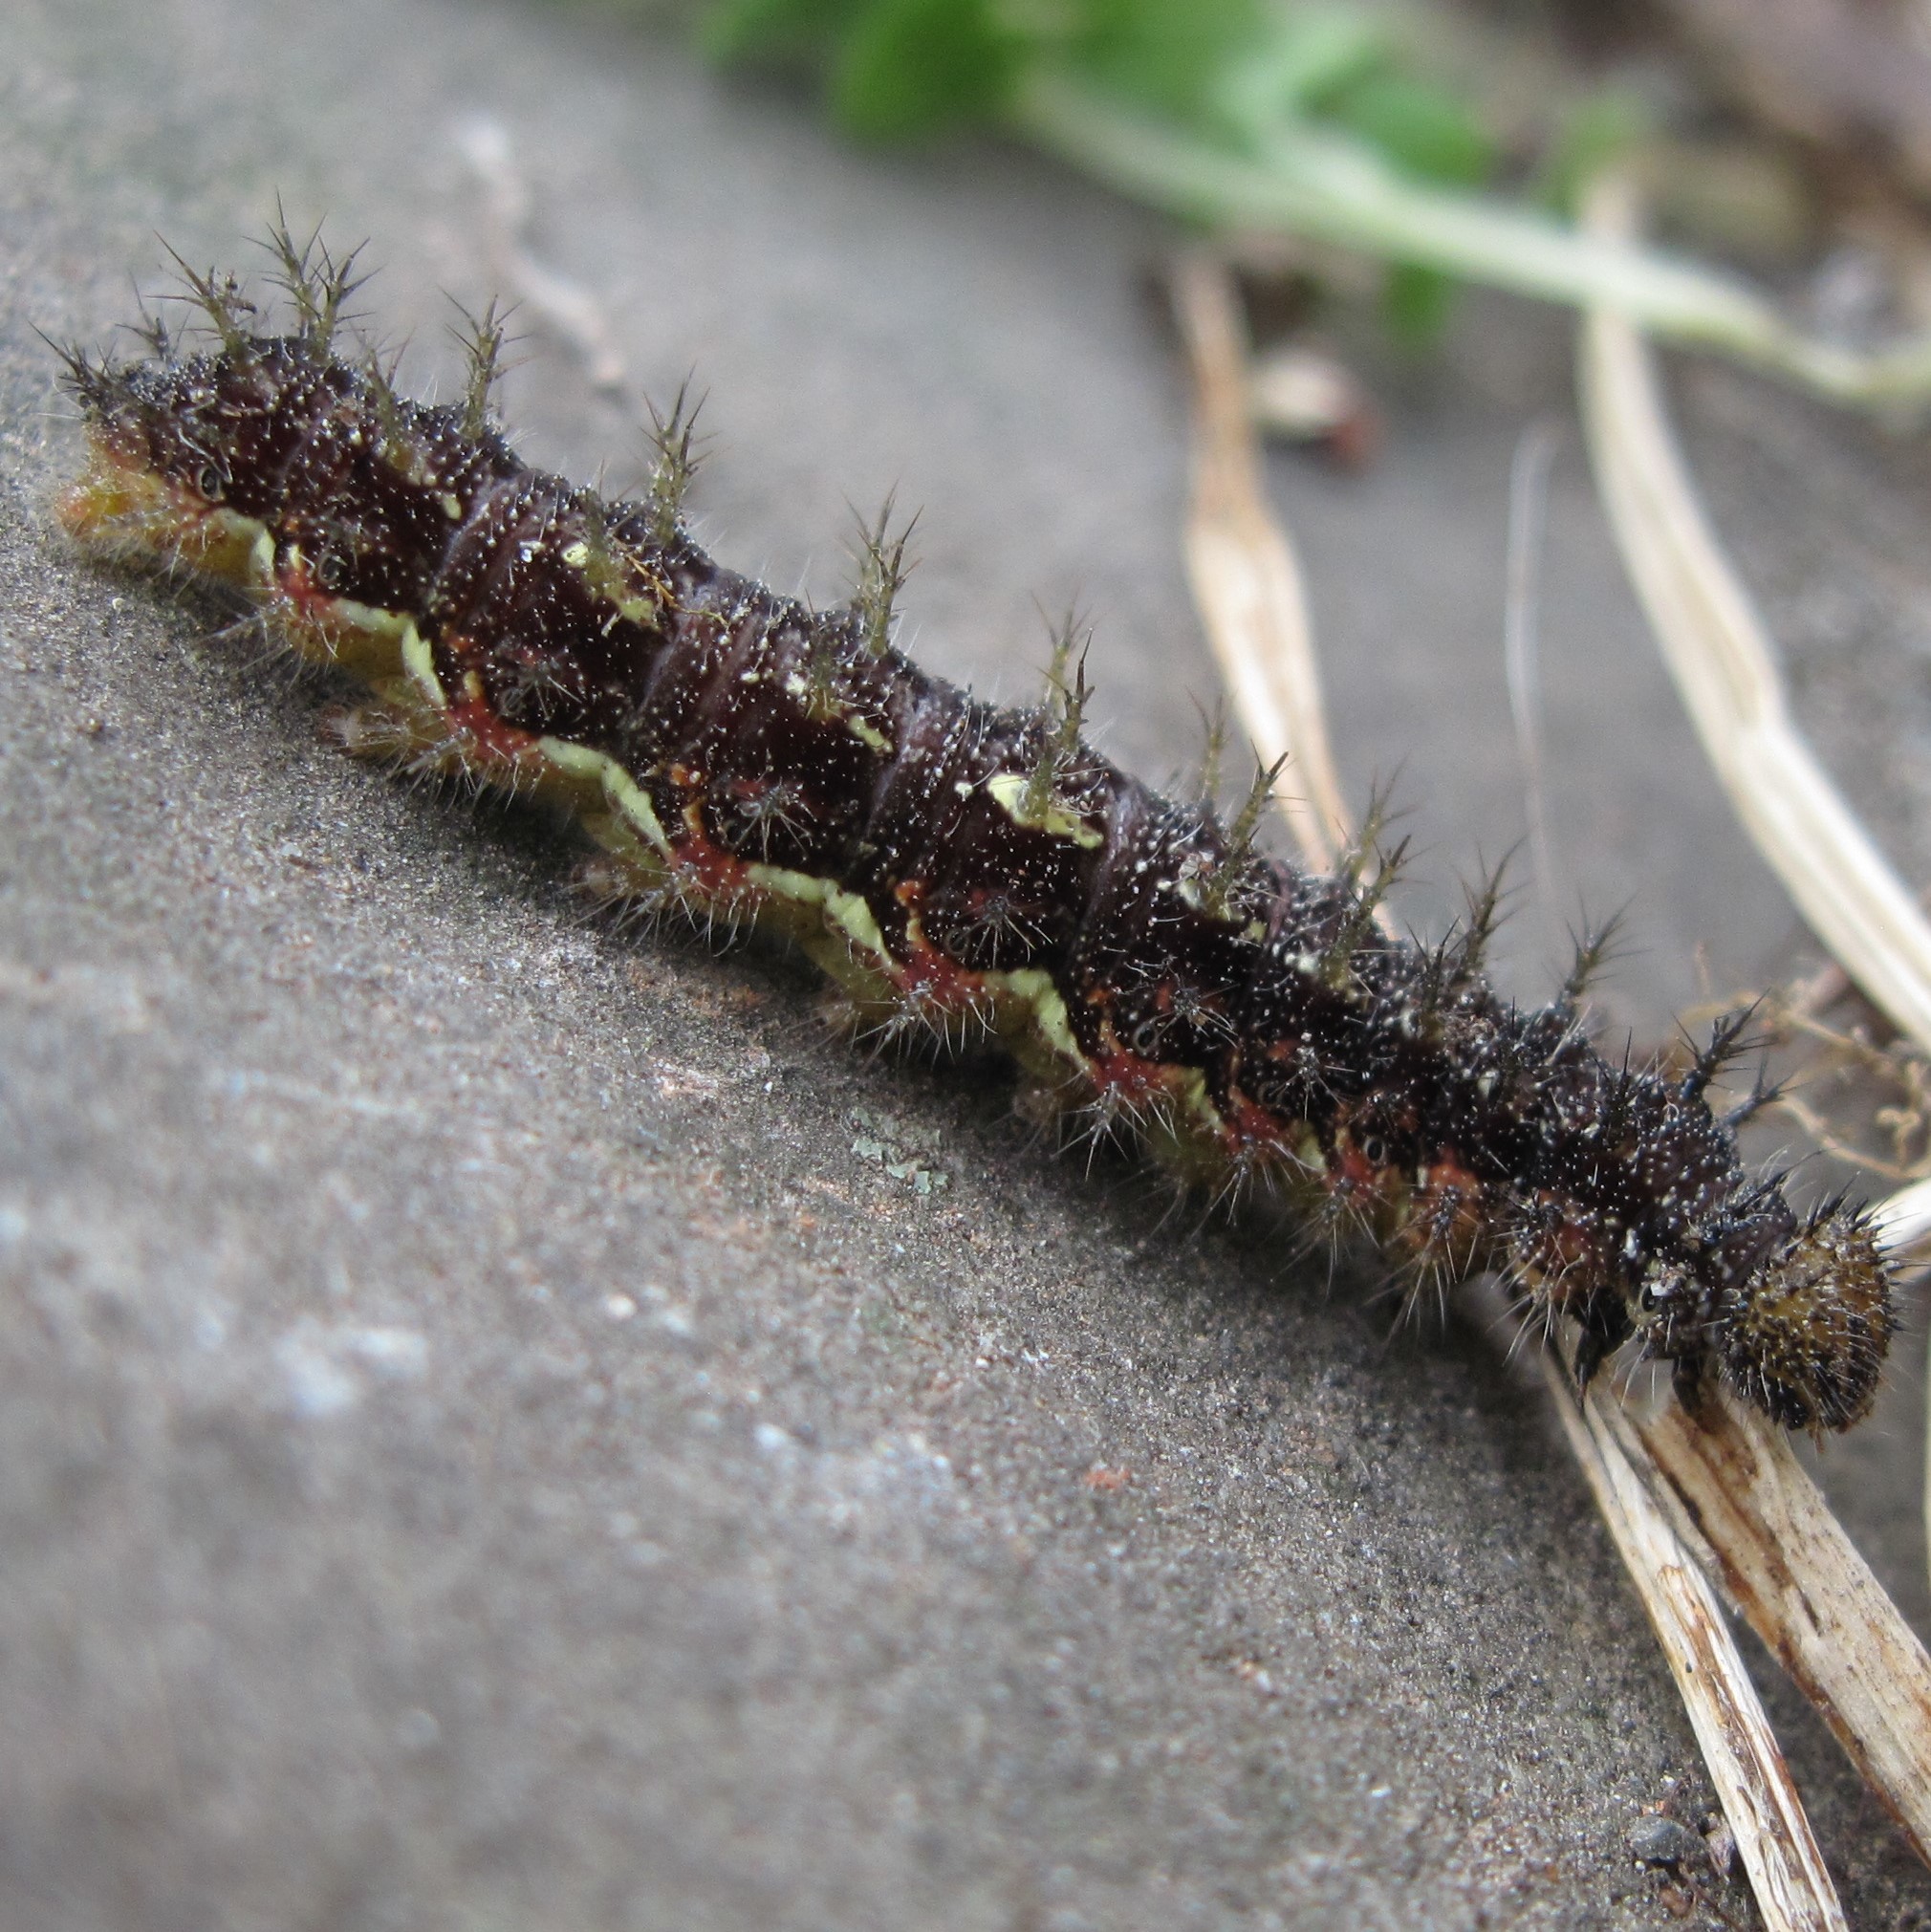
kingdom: Animalia
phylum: Arthropoda
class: Insecta
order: Lepidoptera
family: Nymphalidae
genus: Vanessa
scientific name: Vanessa itea
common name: Yellow admiral
